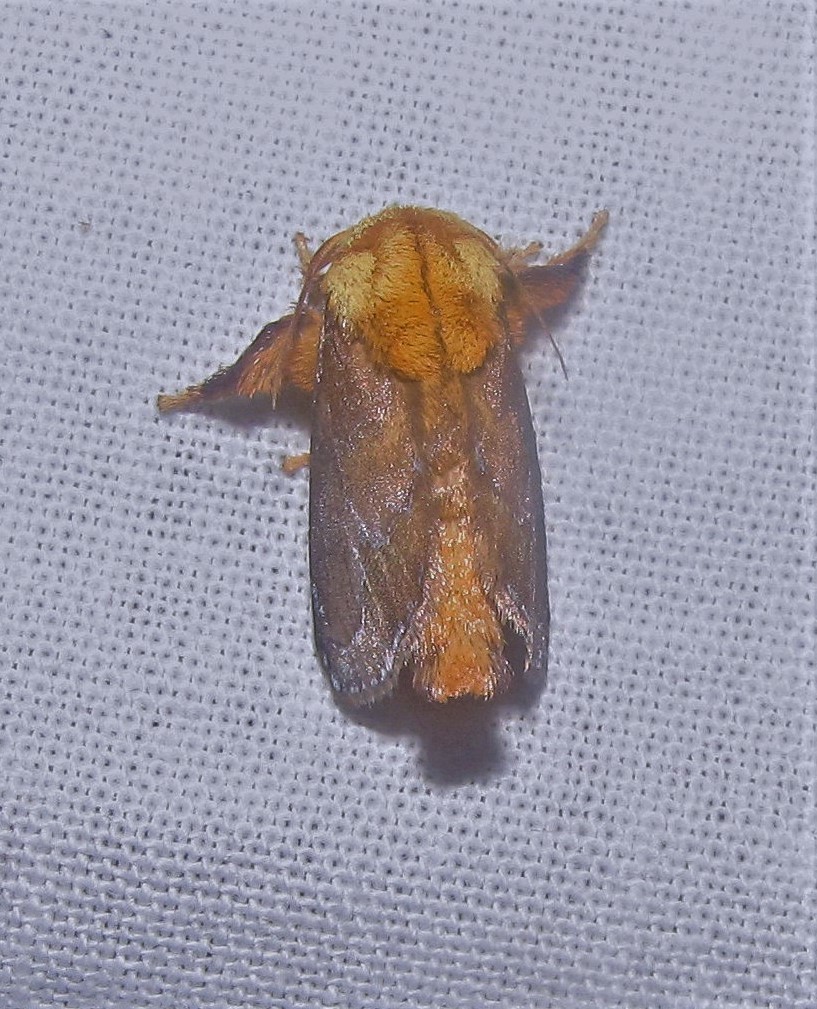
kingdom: Animalia
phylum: Arthropoda
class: Insecta
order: Lepidoptera
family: Limacodidae
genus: Miresa
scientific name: Miresa clarissa
